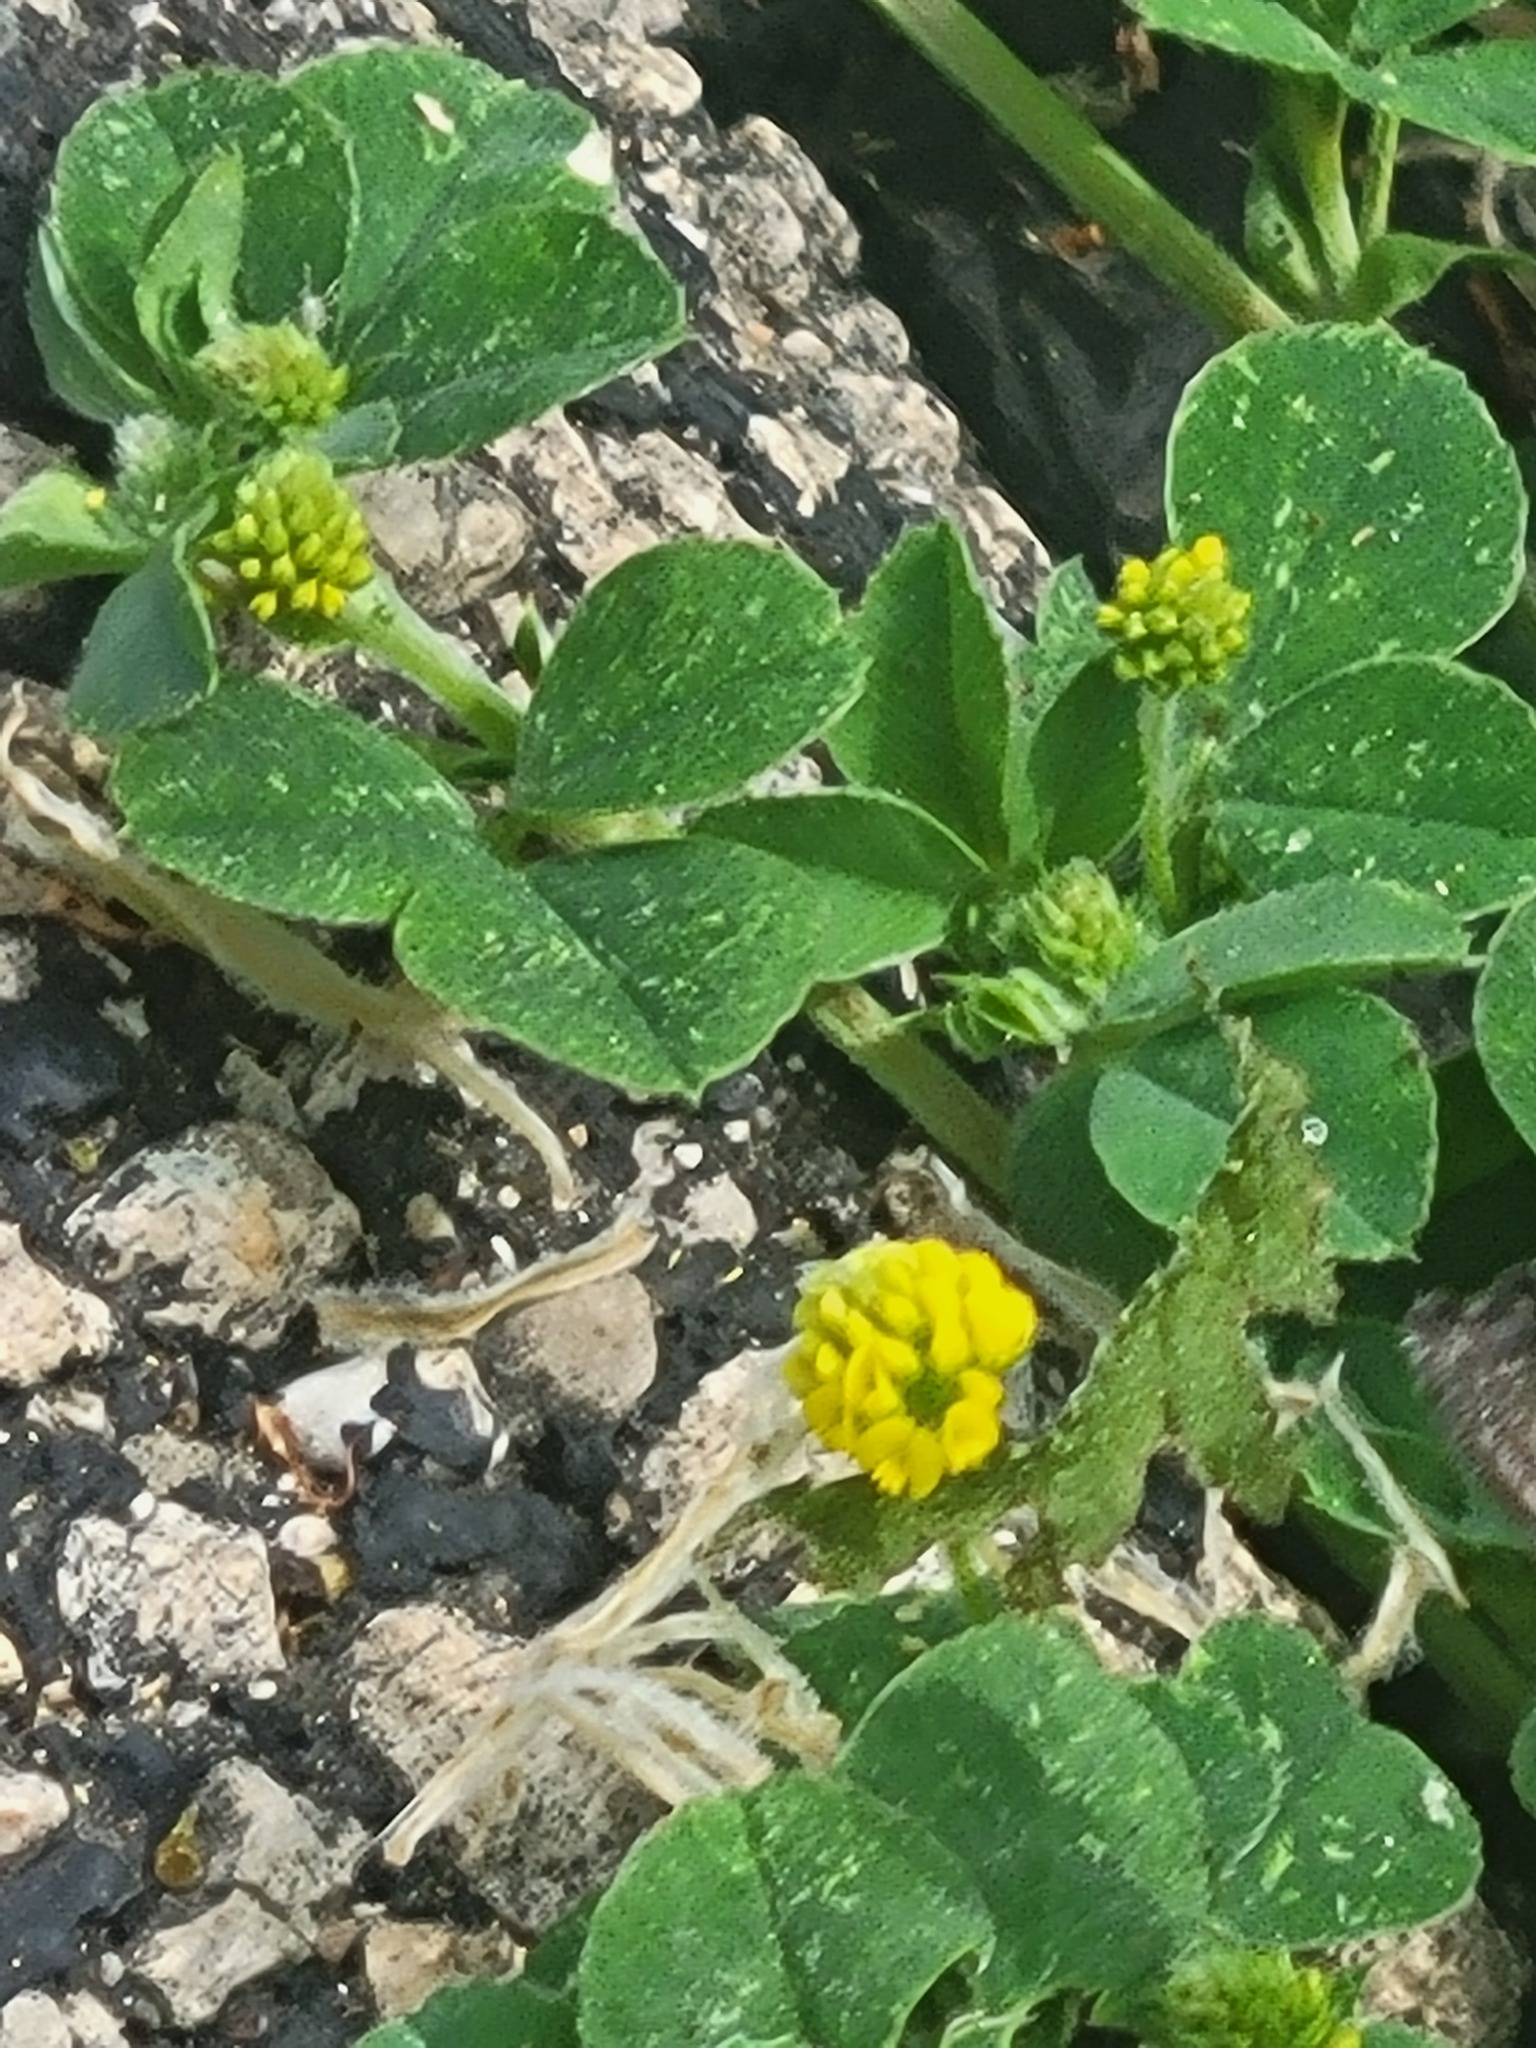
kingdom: Plantae
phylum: Tracheophyta
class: Magnoliopsida
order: Fabales
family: Fabaceae
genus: Medicago
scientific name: Medicago lupulina
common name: Black medick
